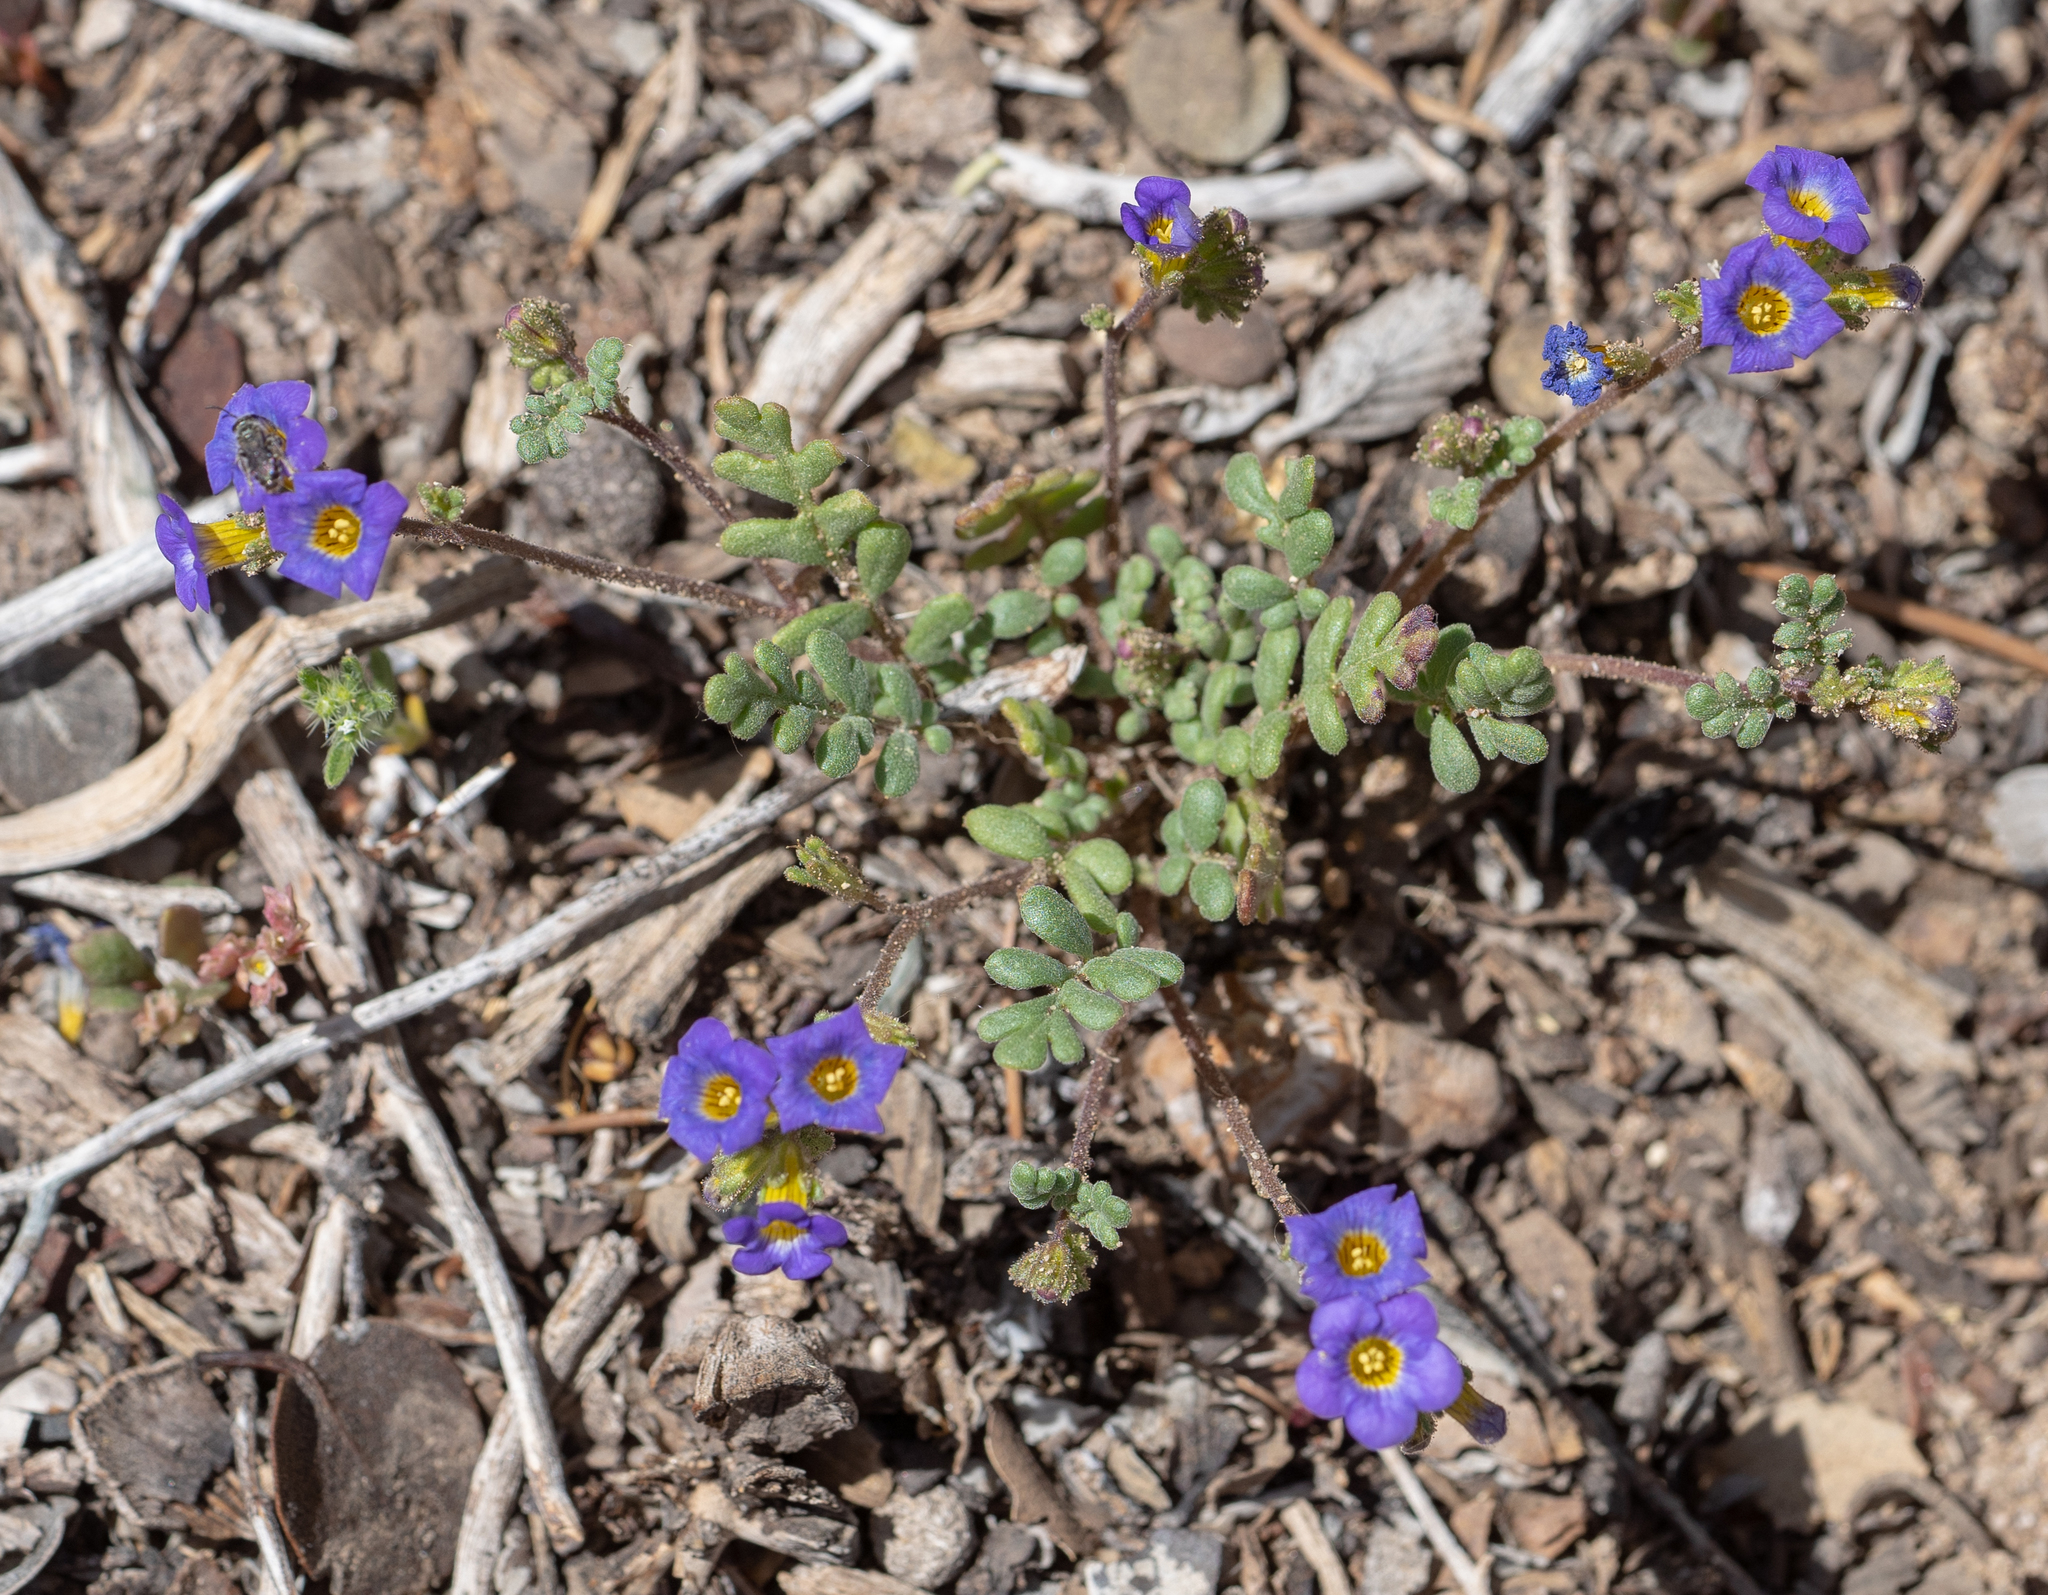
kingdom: Plantae
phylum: Tracheophyta
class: Magnoliopsida
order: Boraginales
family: Hydrophyllaceae
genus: Phacelia
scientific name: Phacelia fremontii
